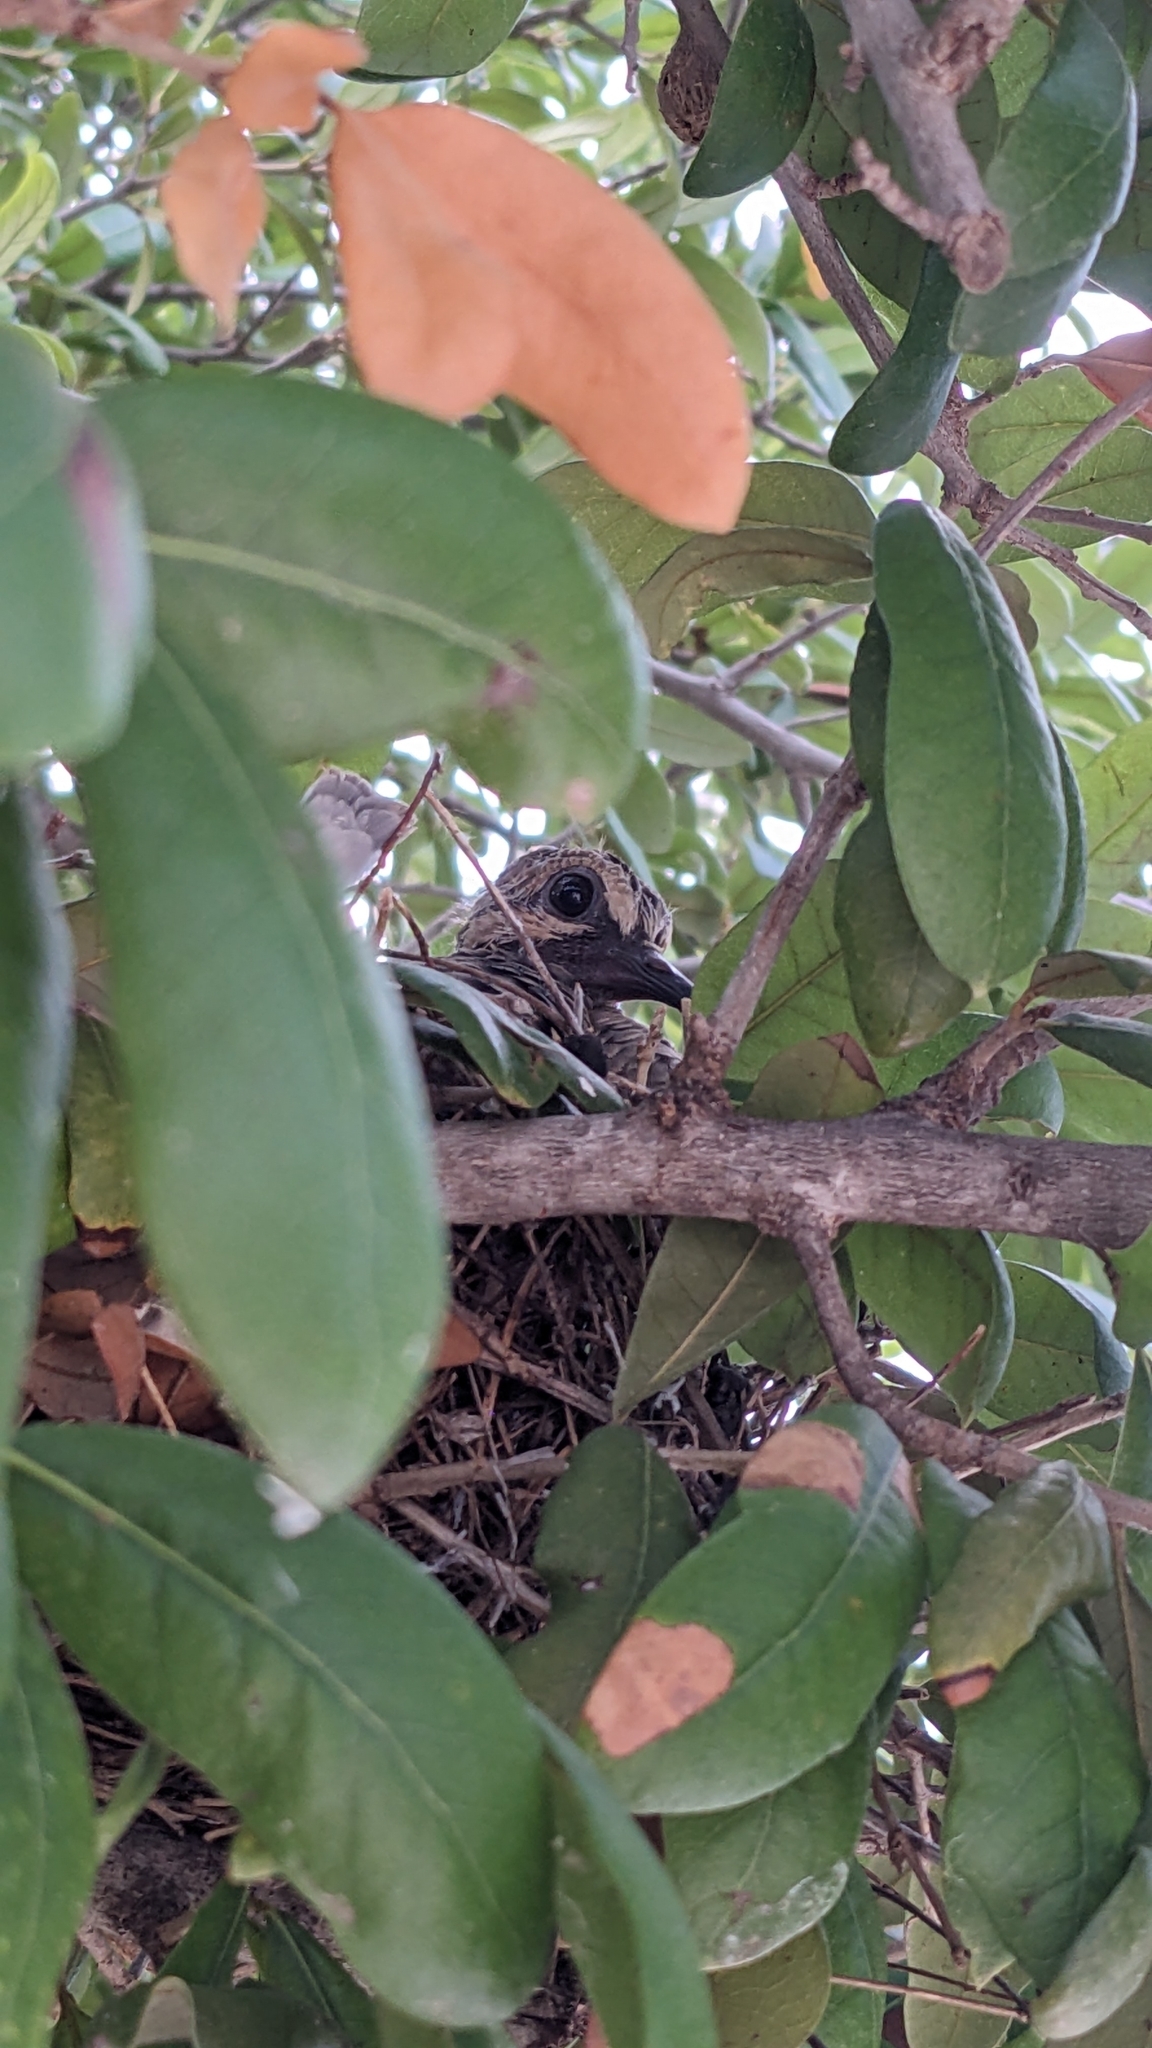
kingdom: Animalia
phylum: Chordata
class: Aves
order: Columbiformes
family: Columbidae
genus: Zenaida
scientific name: Zenaida macroura
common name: Mourning dove
